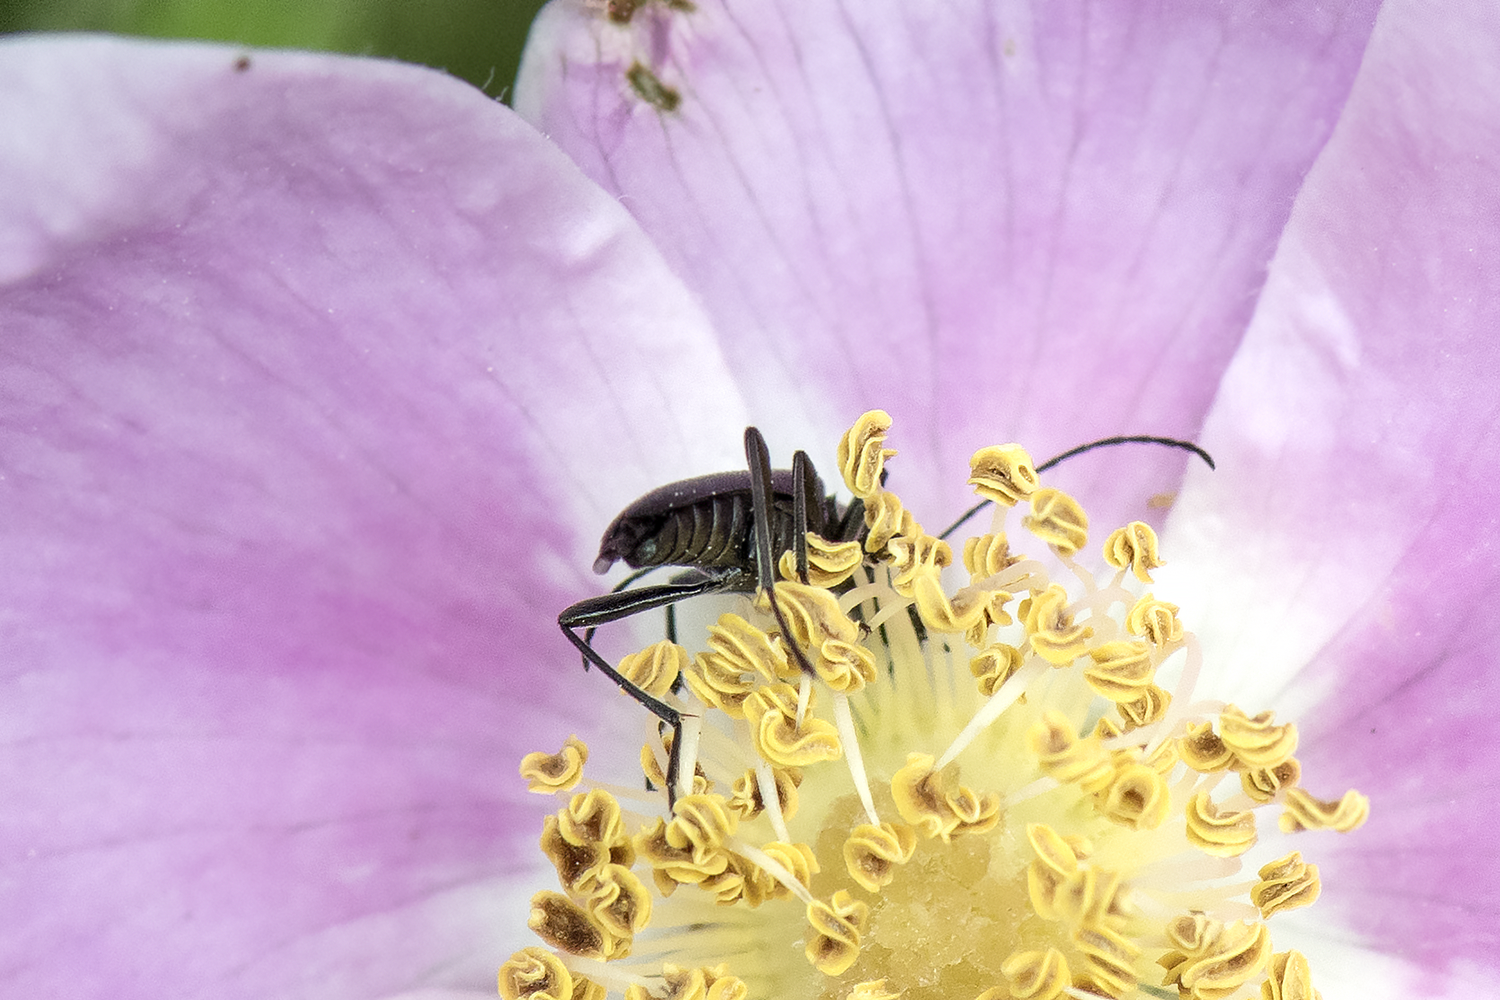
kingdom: Animalia
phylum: Arthropoda
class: Insecta
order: Coleoptera
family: Cerambycidae
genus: Grammoptera
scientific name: Grammoptera subargentata
